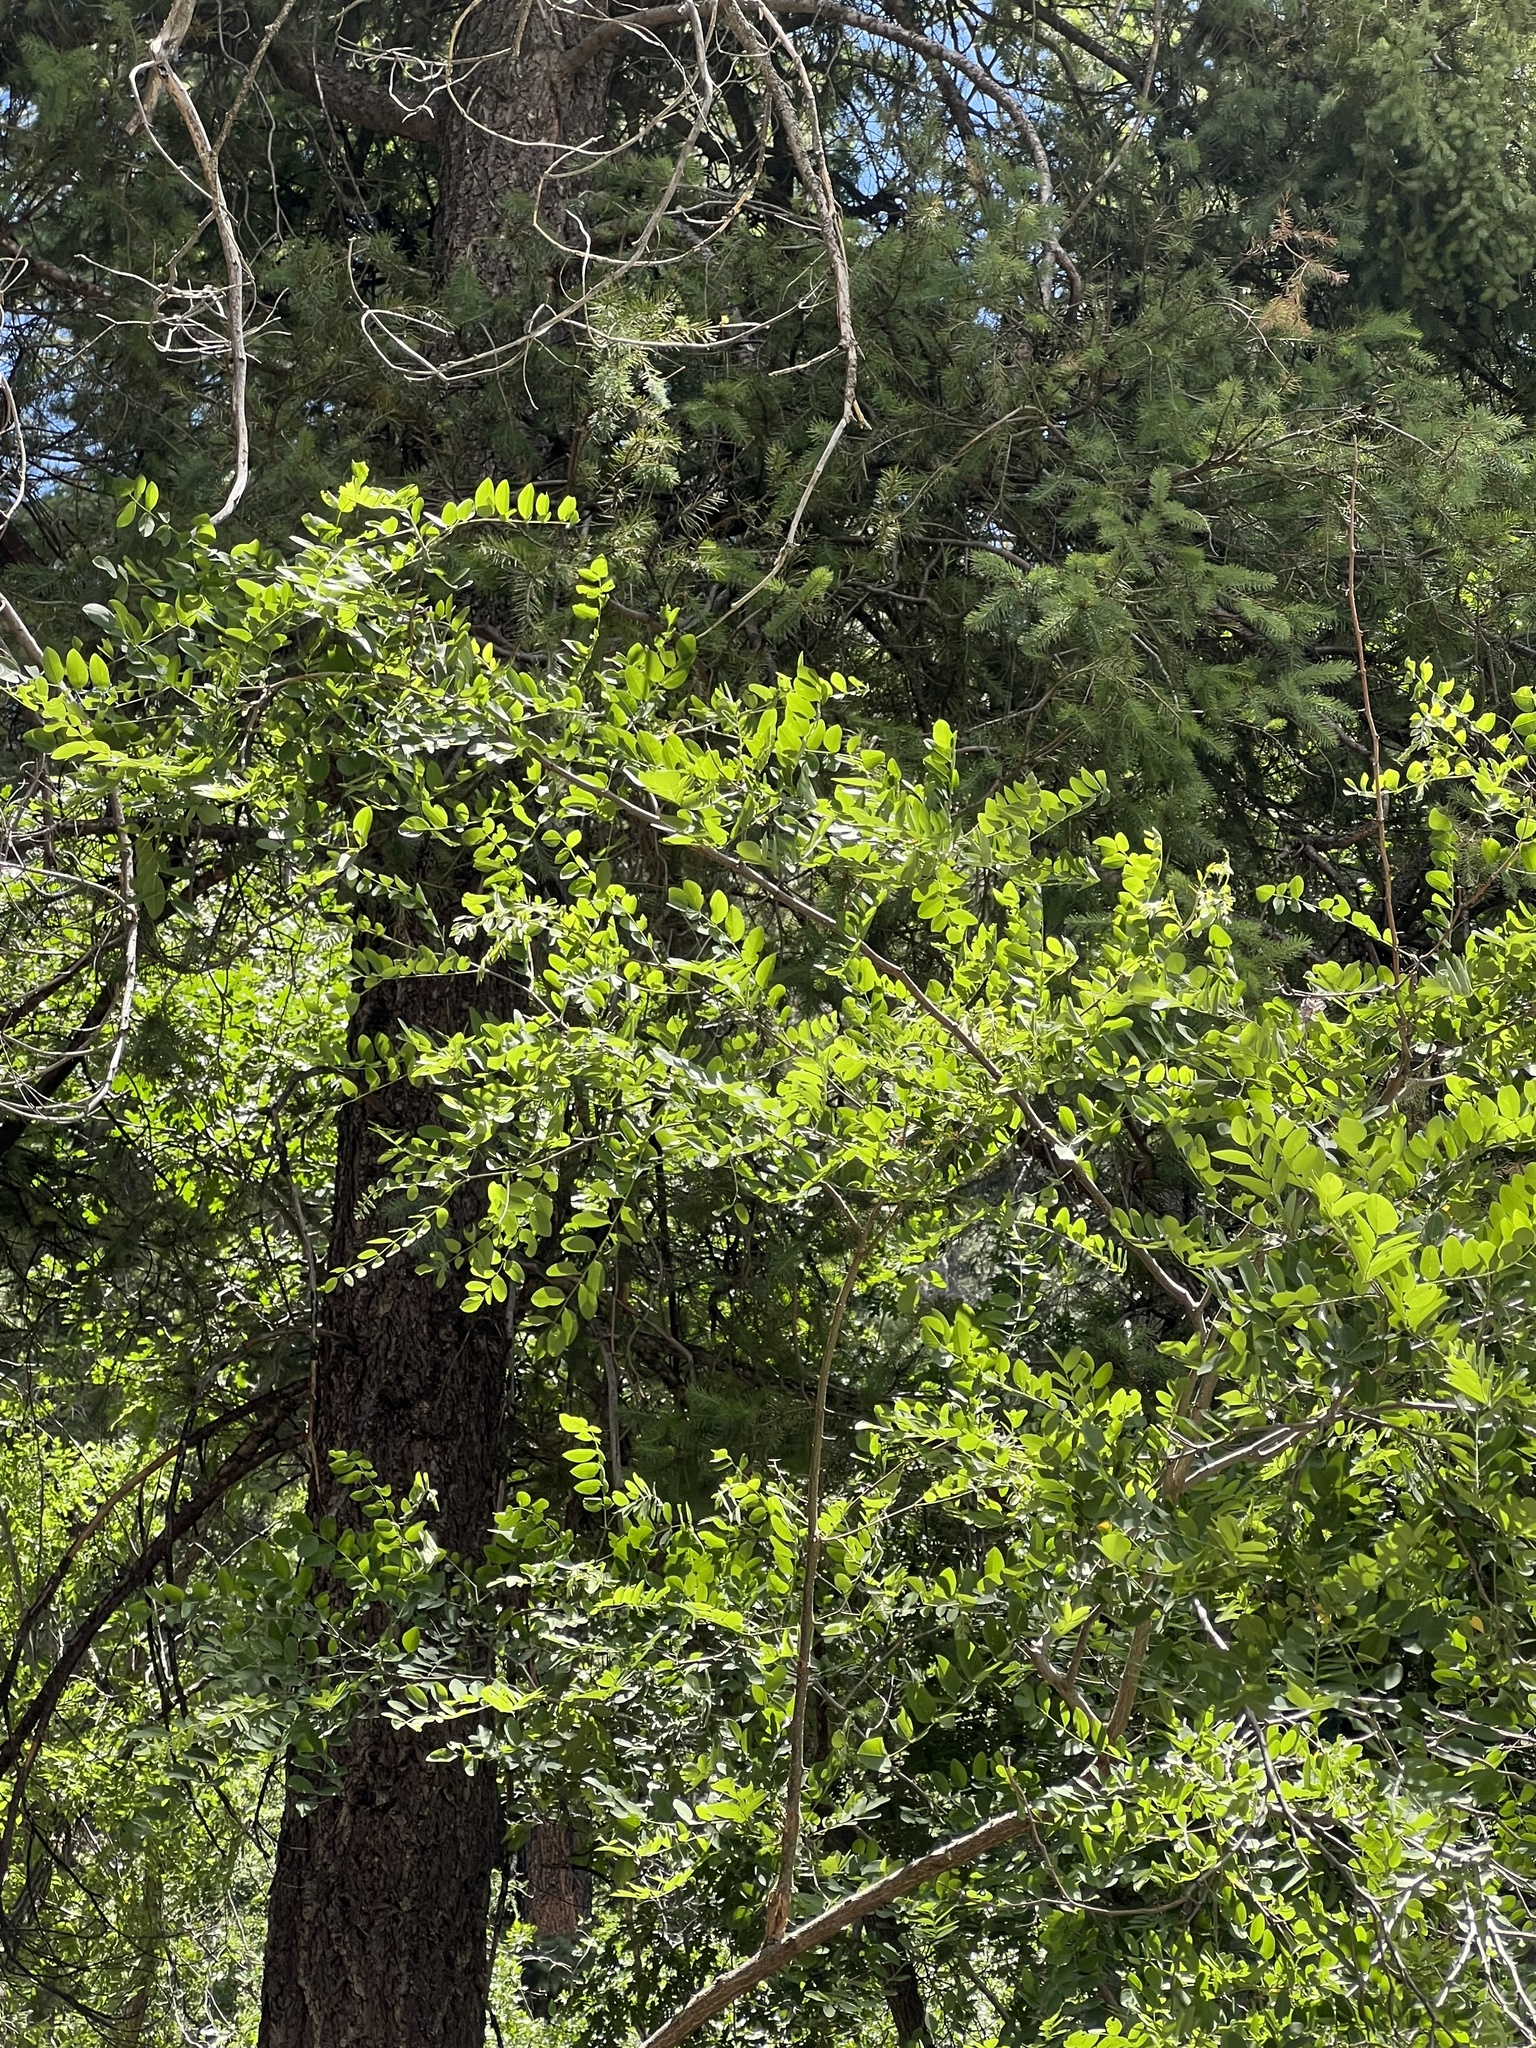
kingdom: Plantae
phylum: Tracheophyta
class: Magnoliopsida
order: Fabales
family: Fabaceae
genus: Robinia
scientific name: Robinia neomexicana
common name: New mexico locust
